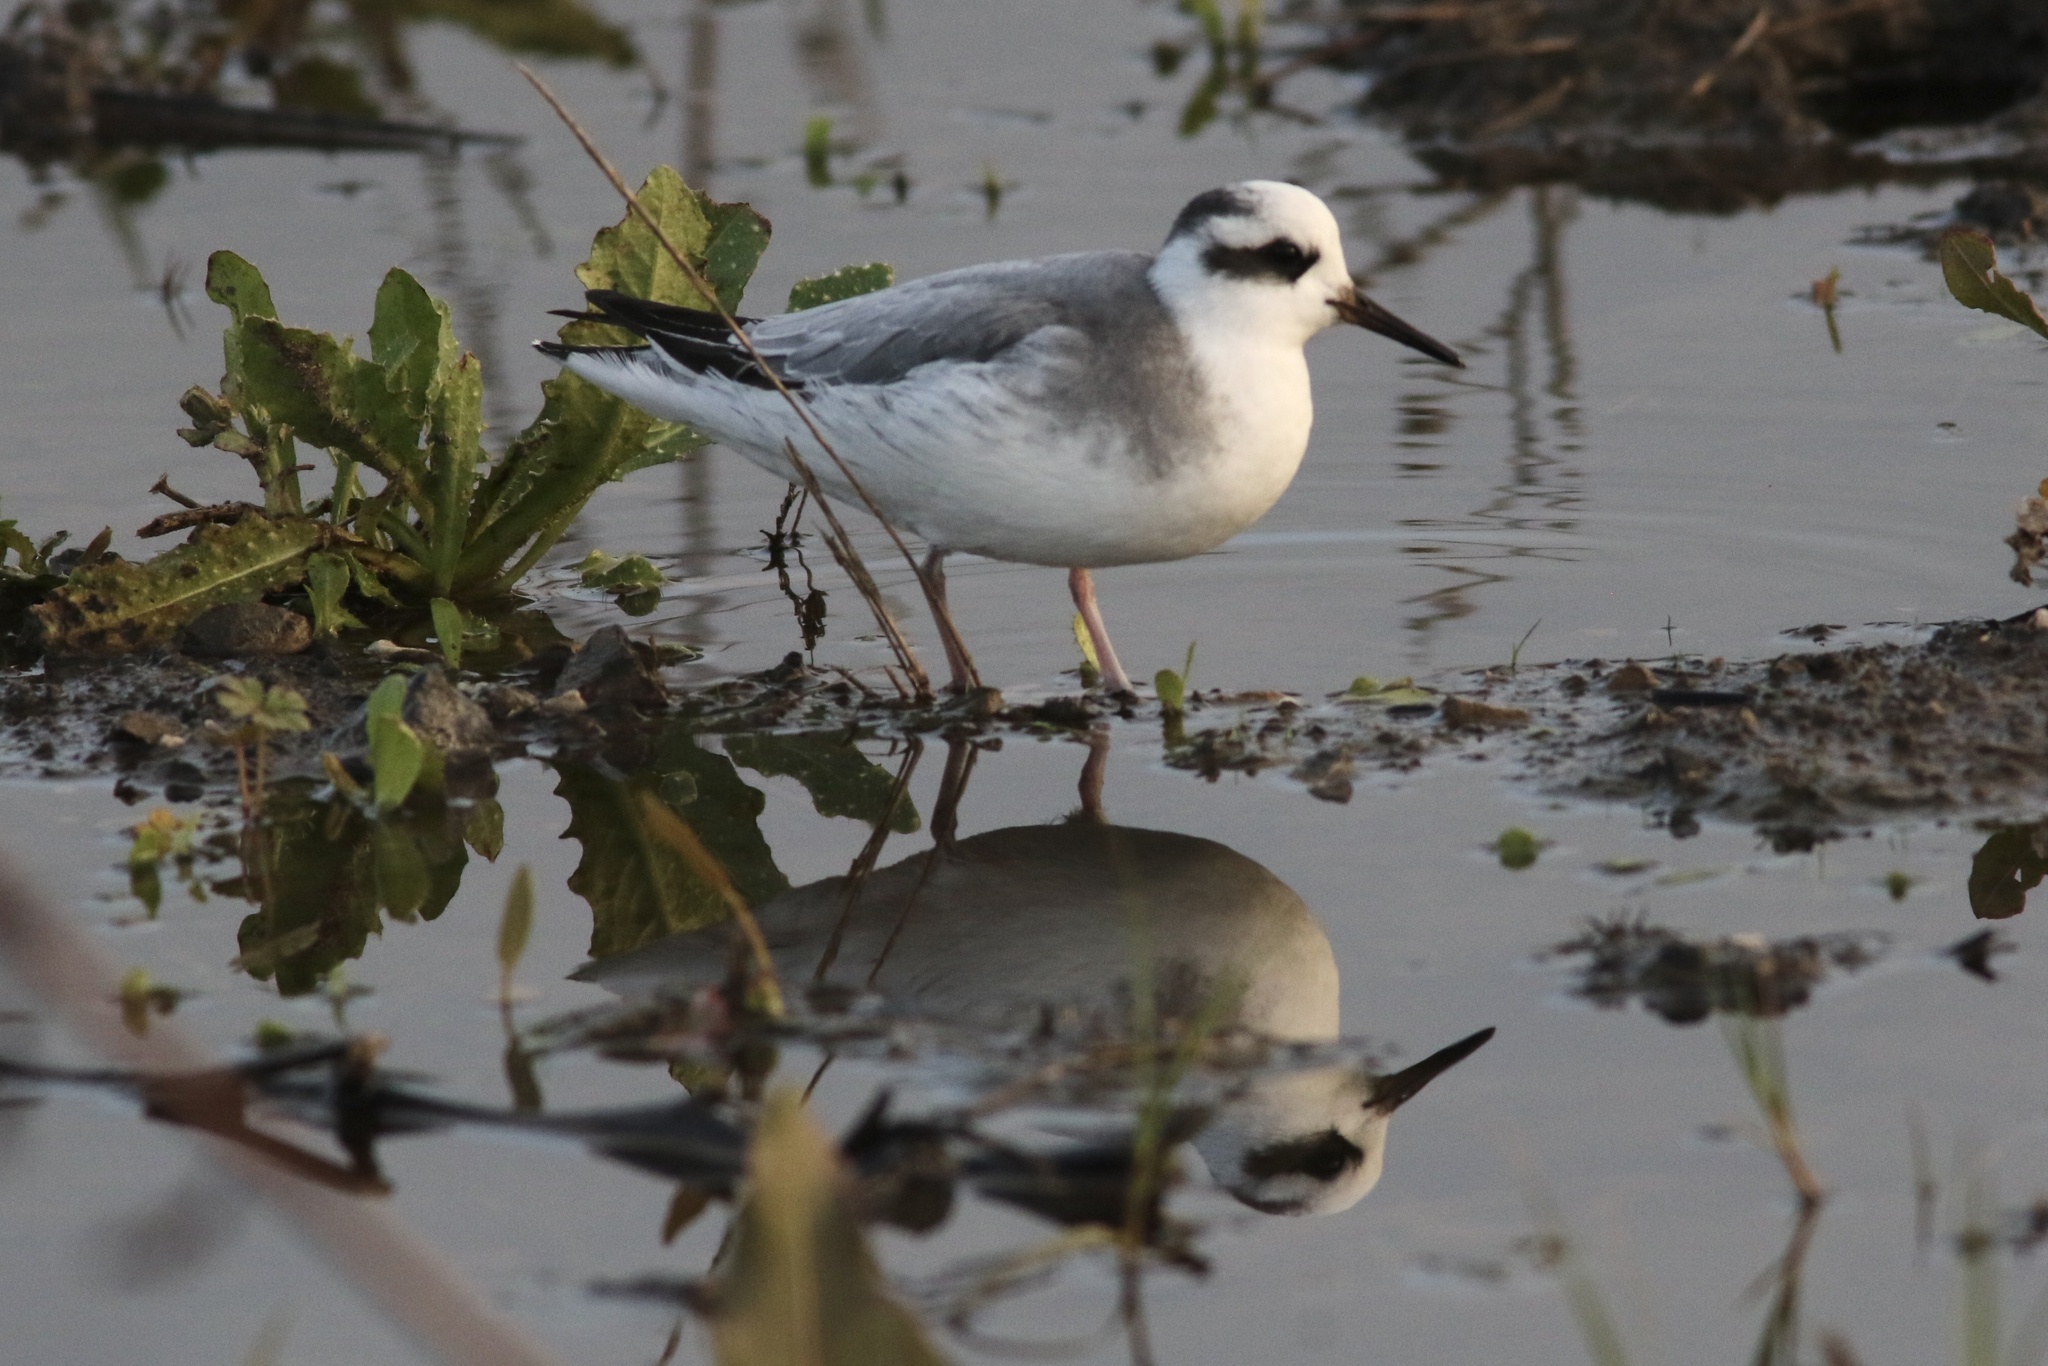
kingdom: Animalia
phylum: Chordata
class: Aves
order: Charadriiformes
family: Scolopacidae
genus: Phalaropus
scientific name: Phalaropus fulicarius
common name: Red phalarope
